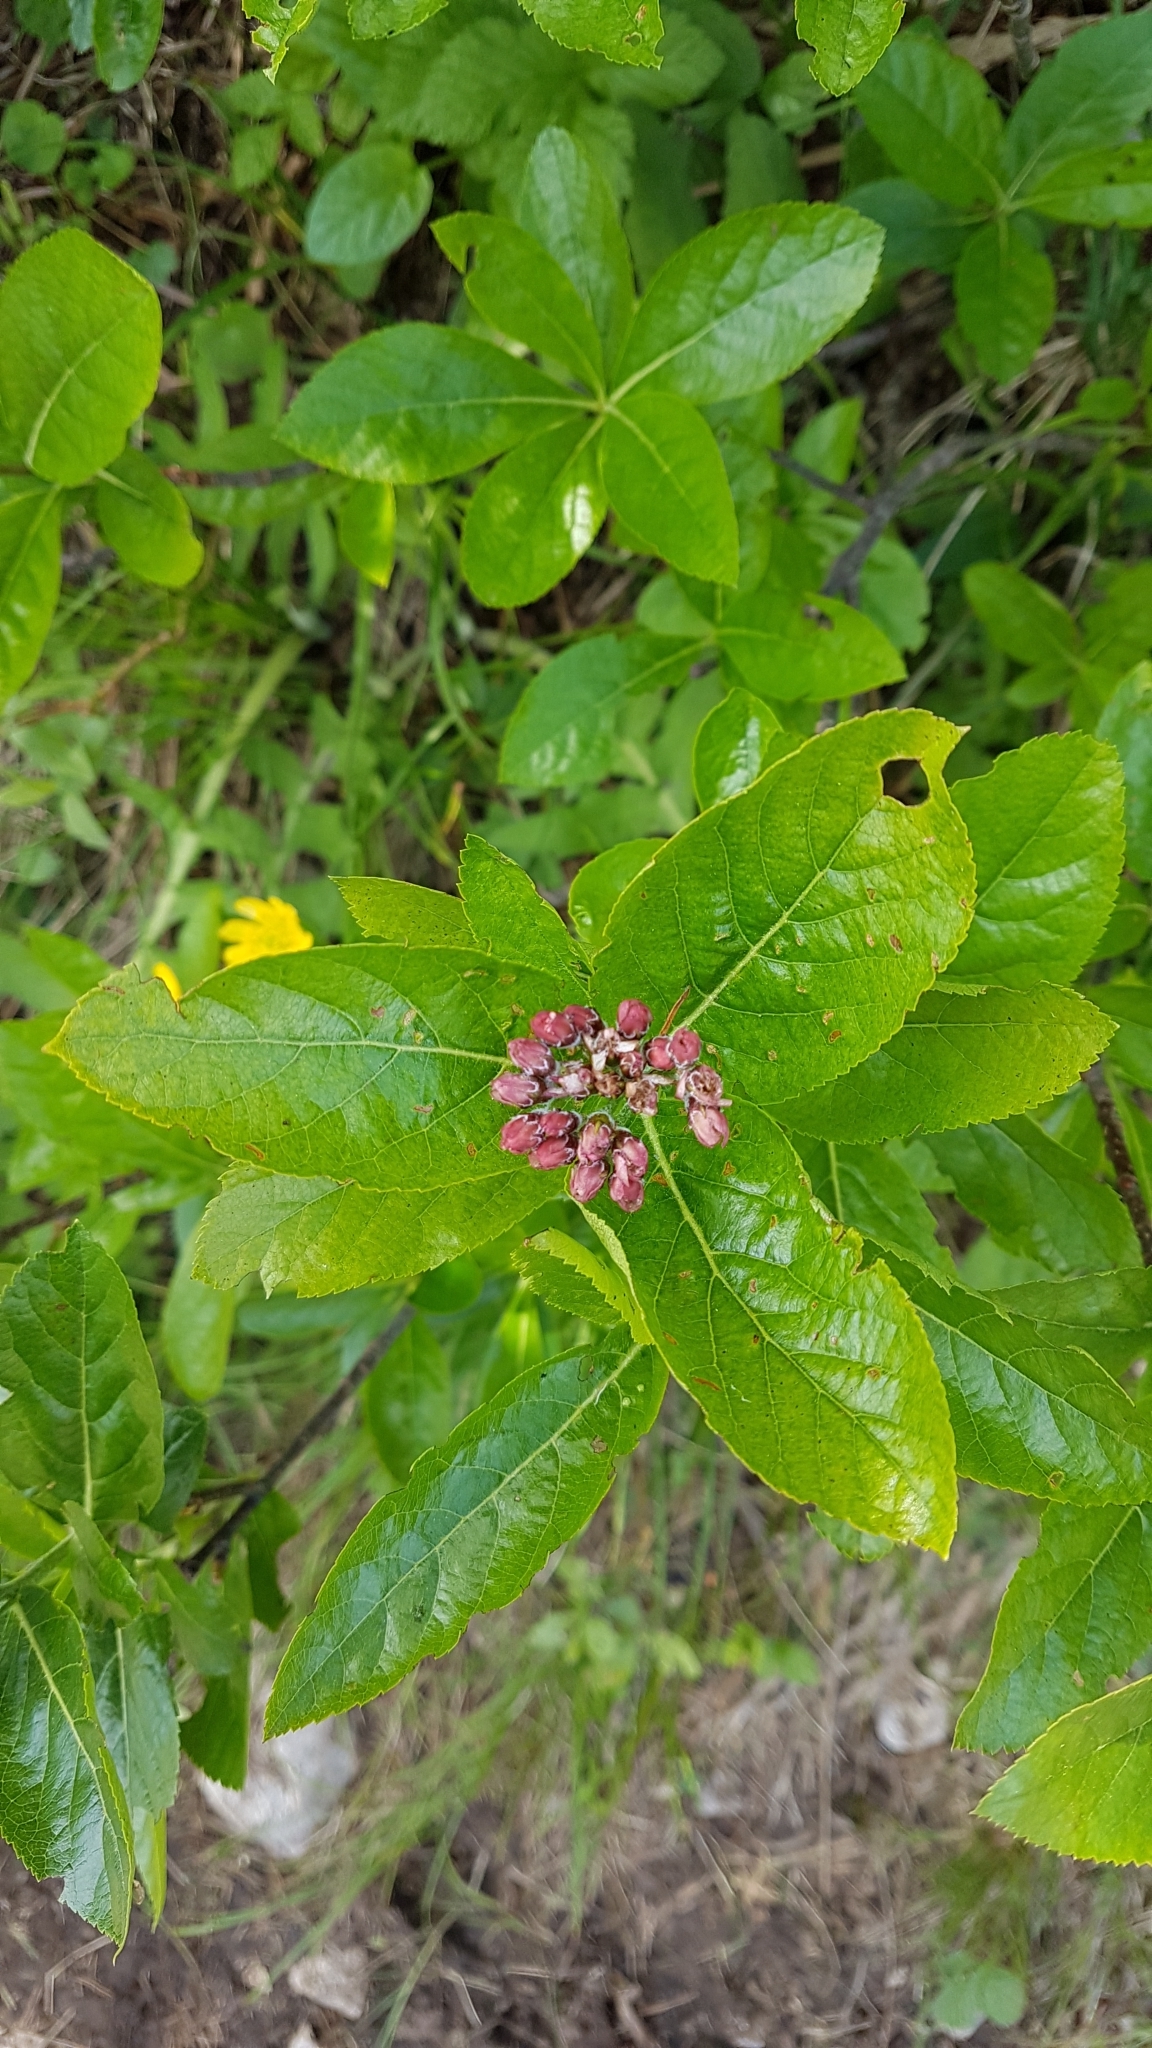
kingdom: Plantae
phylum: Tracheophyta
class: Magnoliopsida
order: Rosales
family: Rosaceae
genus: Chamaemespilus
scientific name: Chamaemespilus alpina
